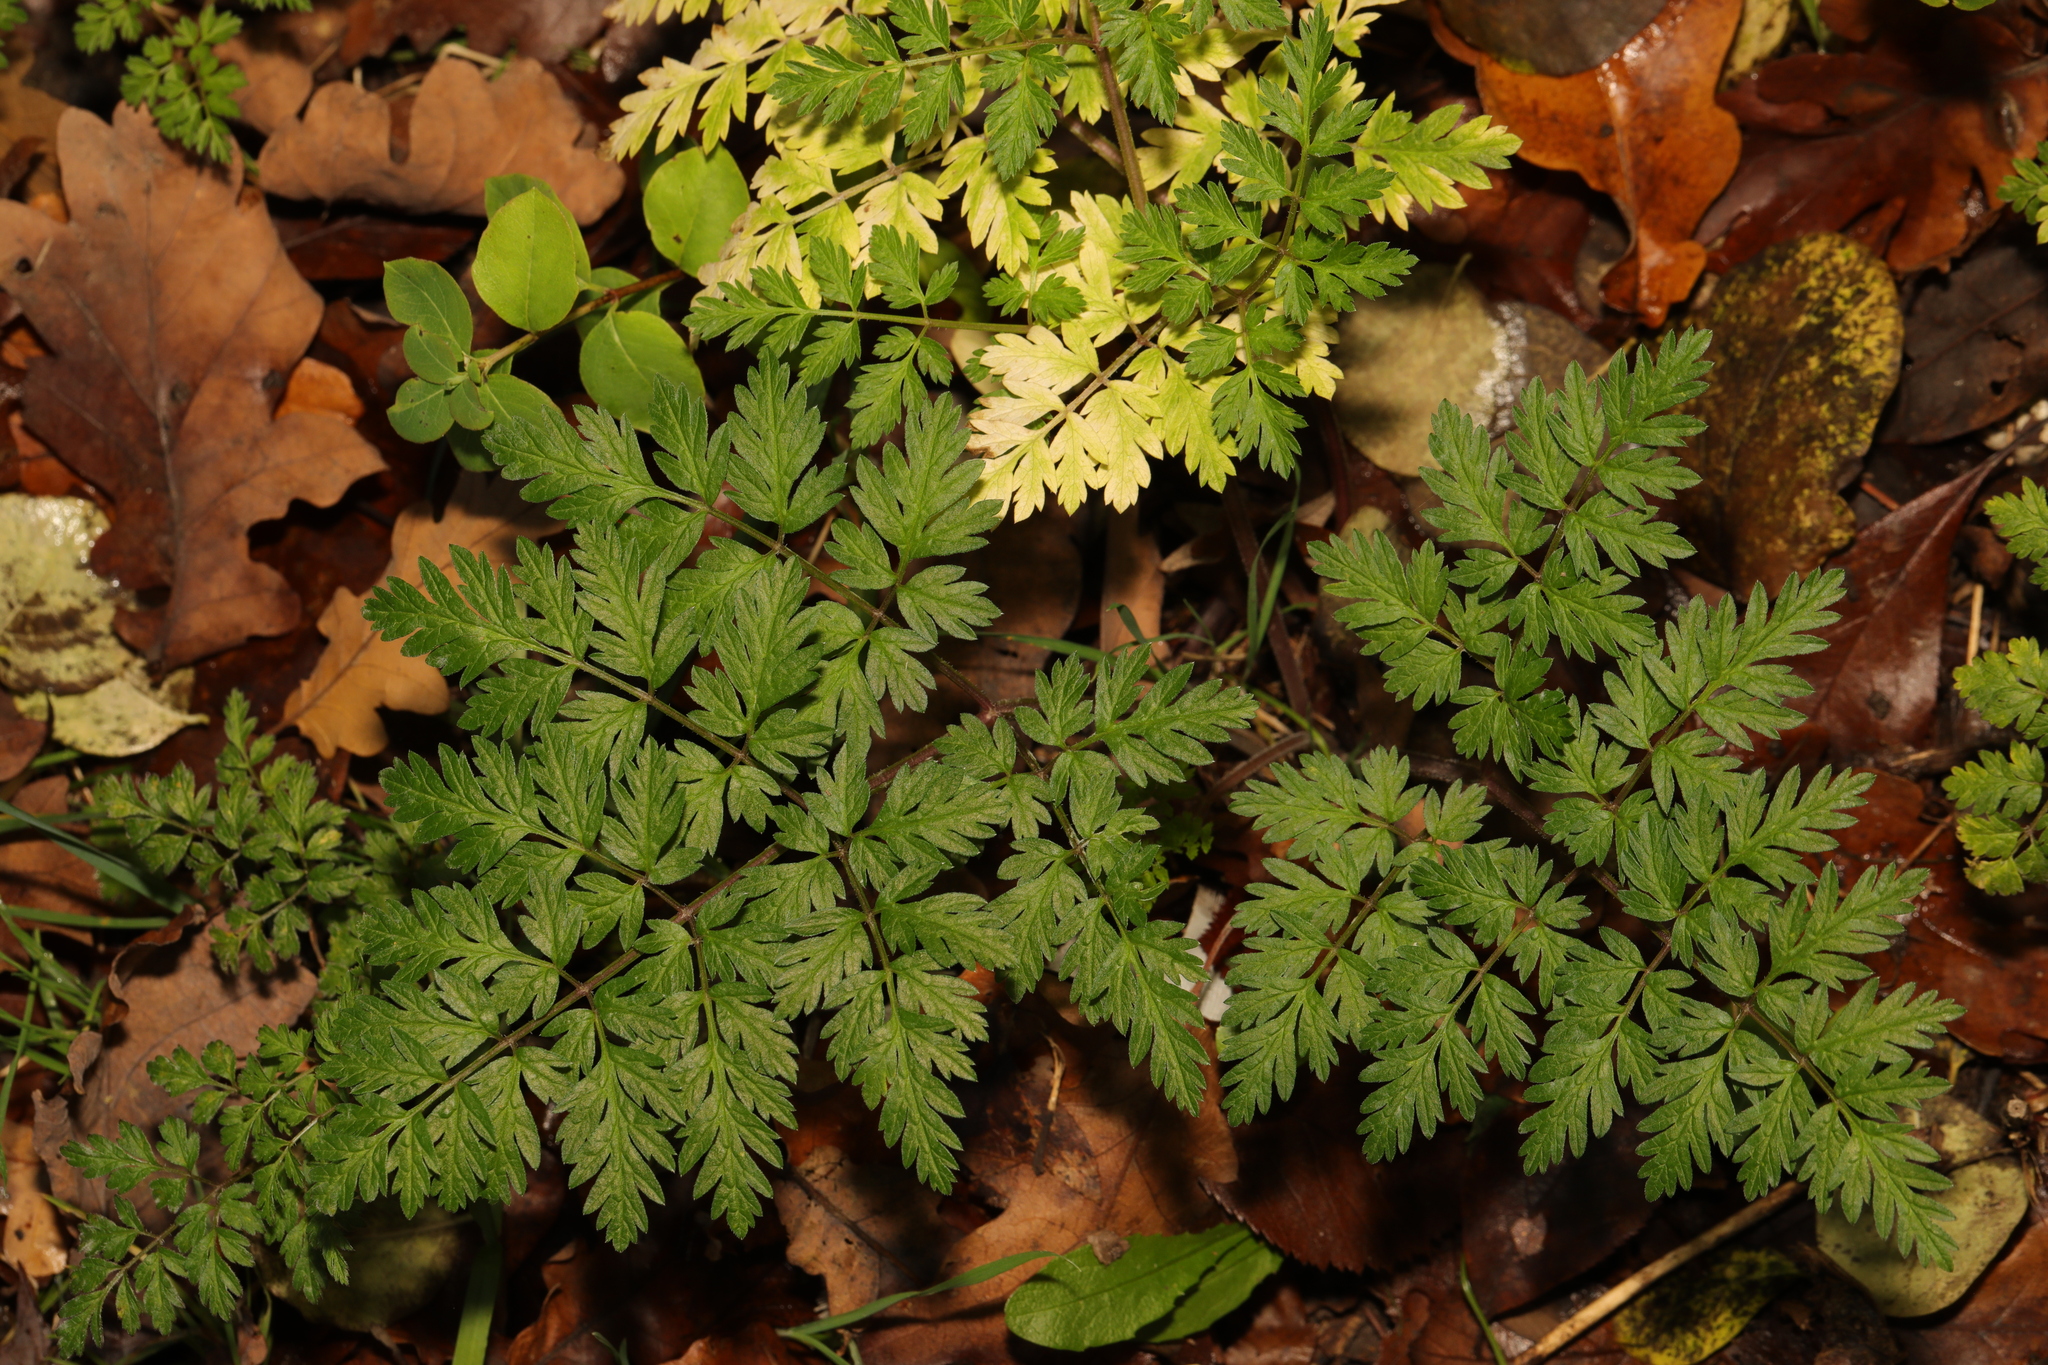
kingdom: Plantae
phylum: Tracheophyta
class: Magnoliopsida
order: Apiales
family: Apiaceae
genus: Anthriscus
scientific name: Anthriscus sylvestris
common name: Cow parsley
